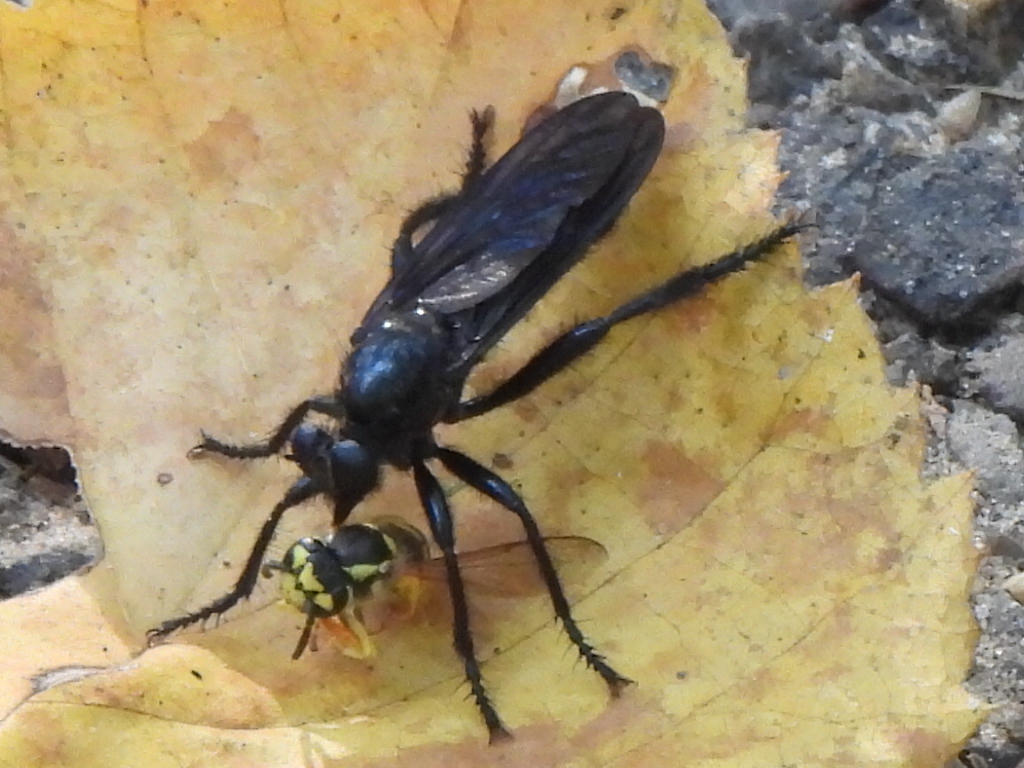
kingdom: Animalia
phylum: Arthropoda
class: Insecta
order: Diptera
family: Asilidae
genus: Orthogonis
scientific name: Orthogonis stygia
